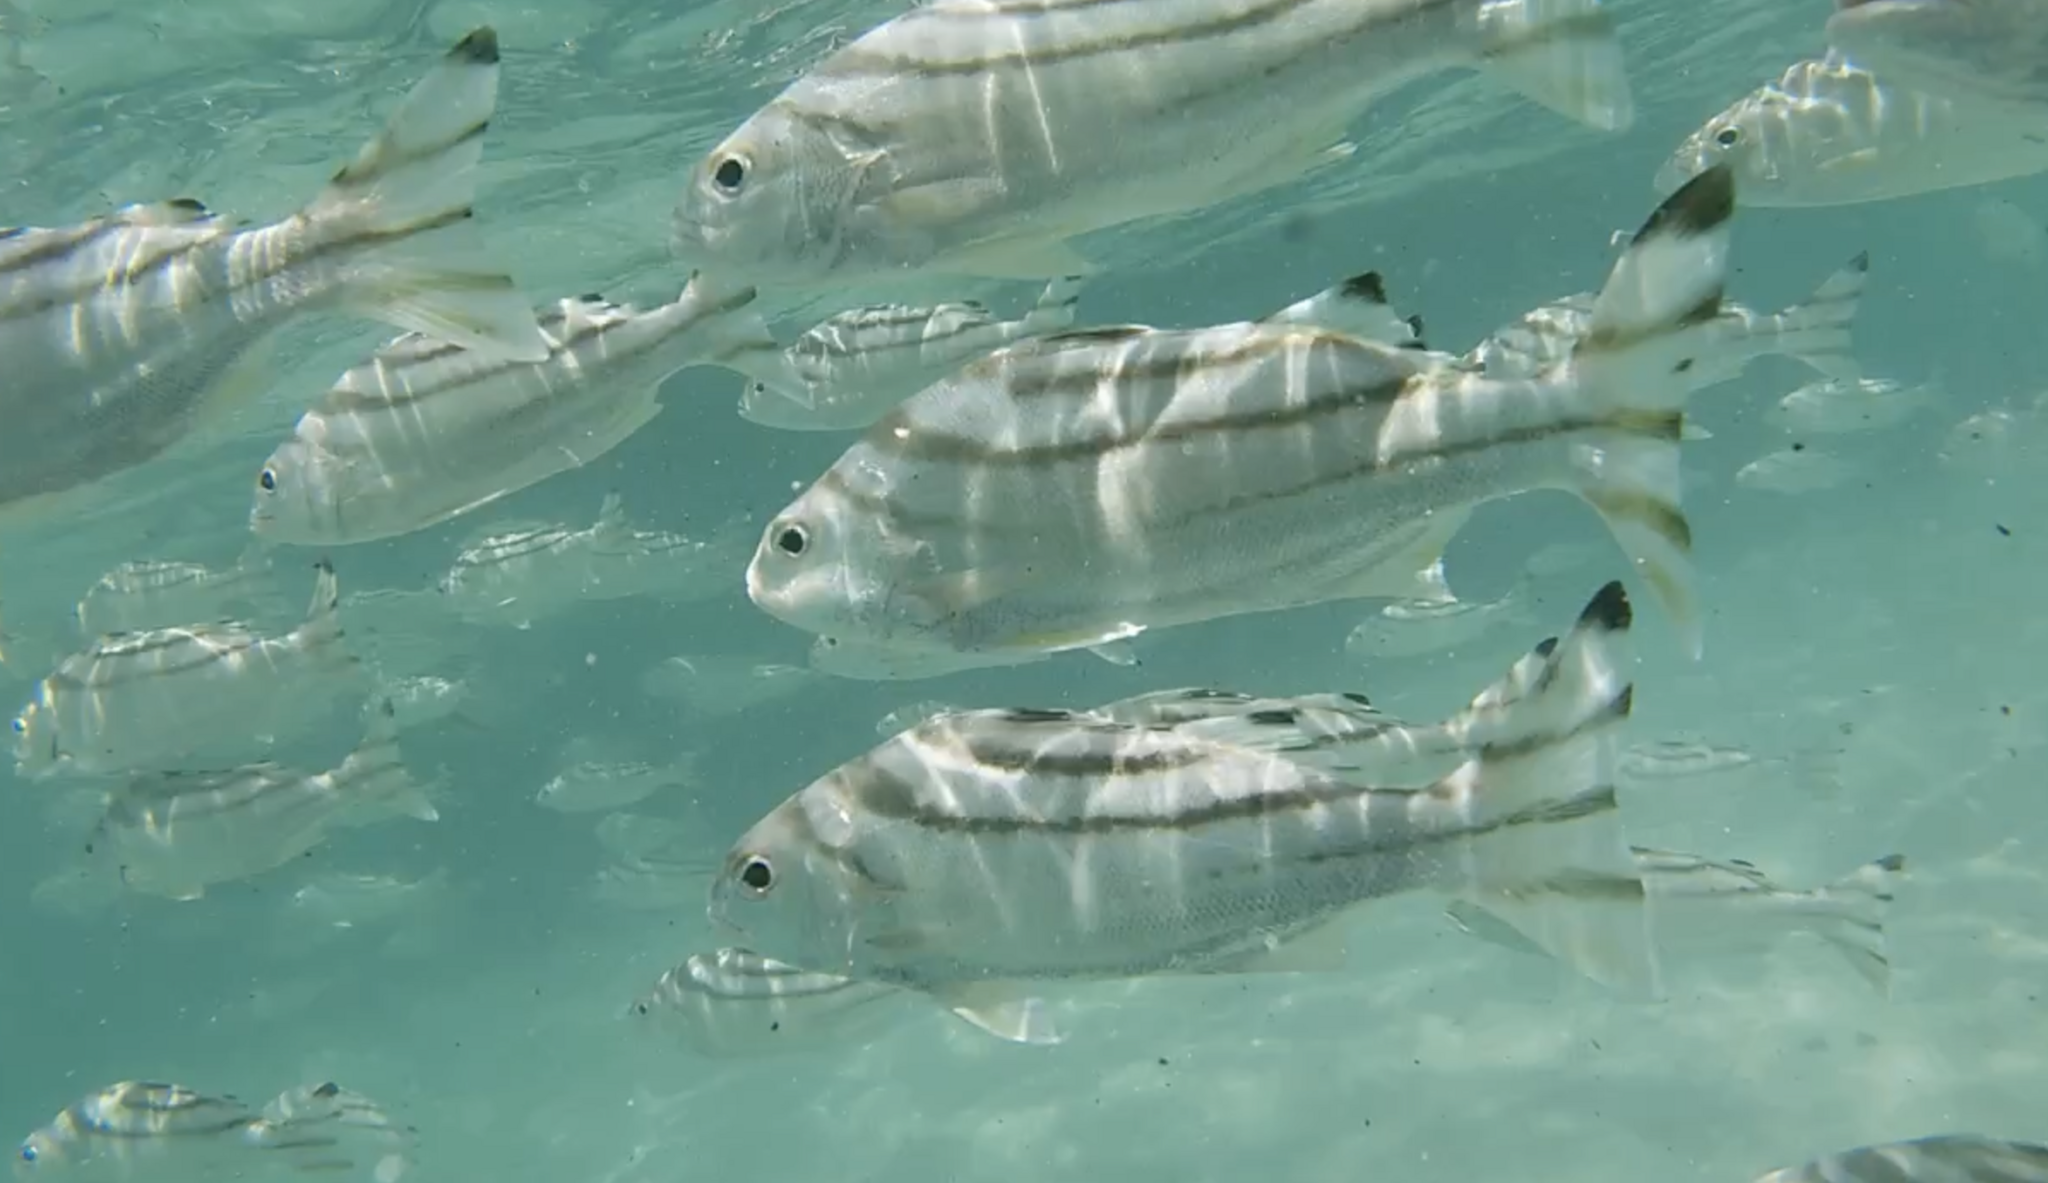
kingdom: Animalia
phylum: Chordata
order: Perciformes
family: Terapontidae
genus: Terapon
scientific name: Terapon jarbua
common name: Jarbua terapon
